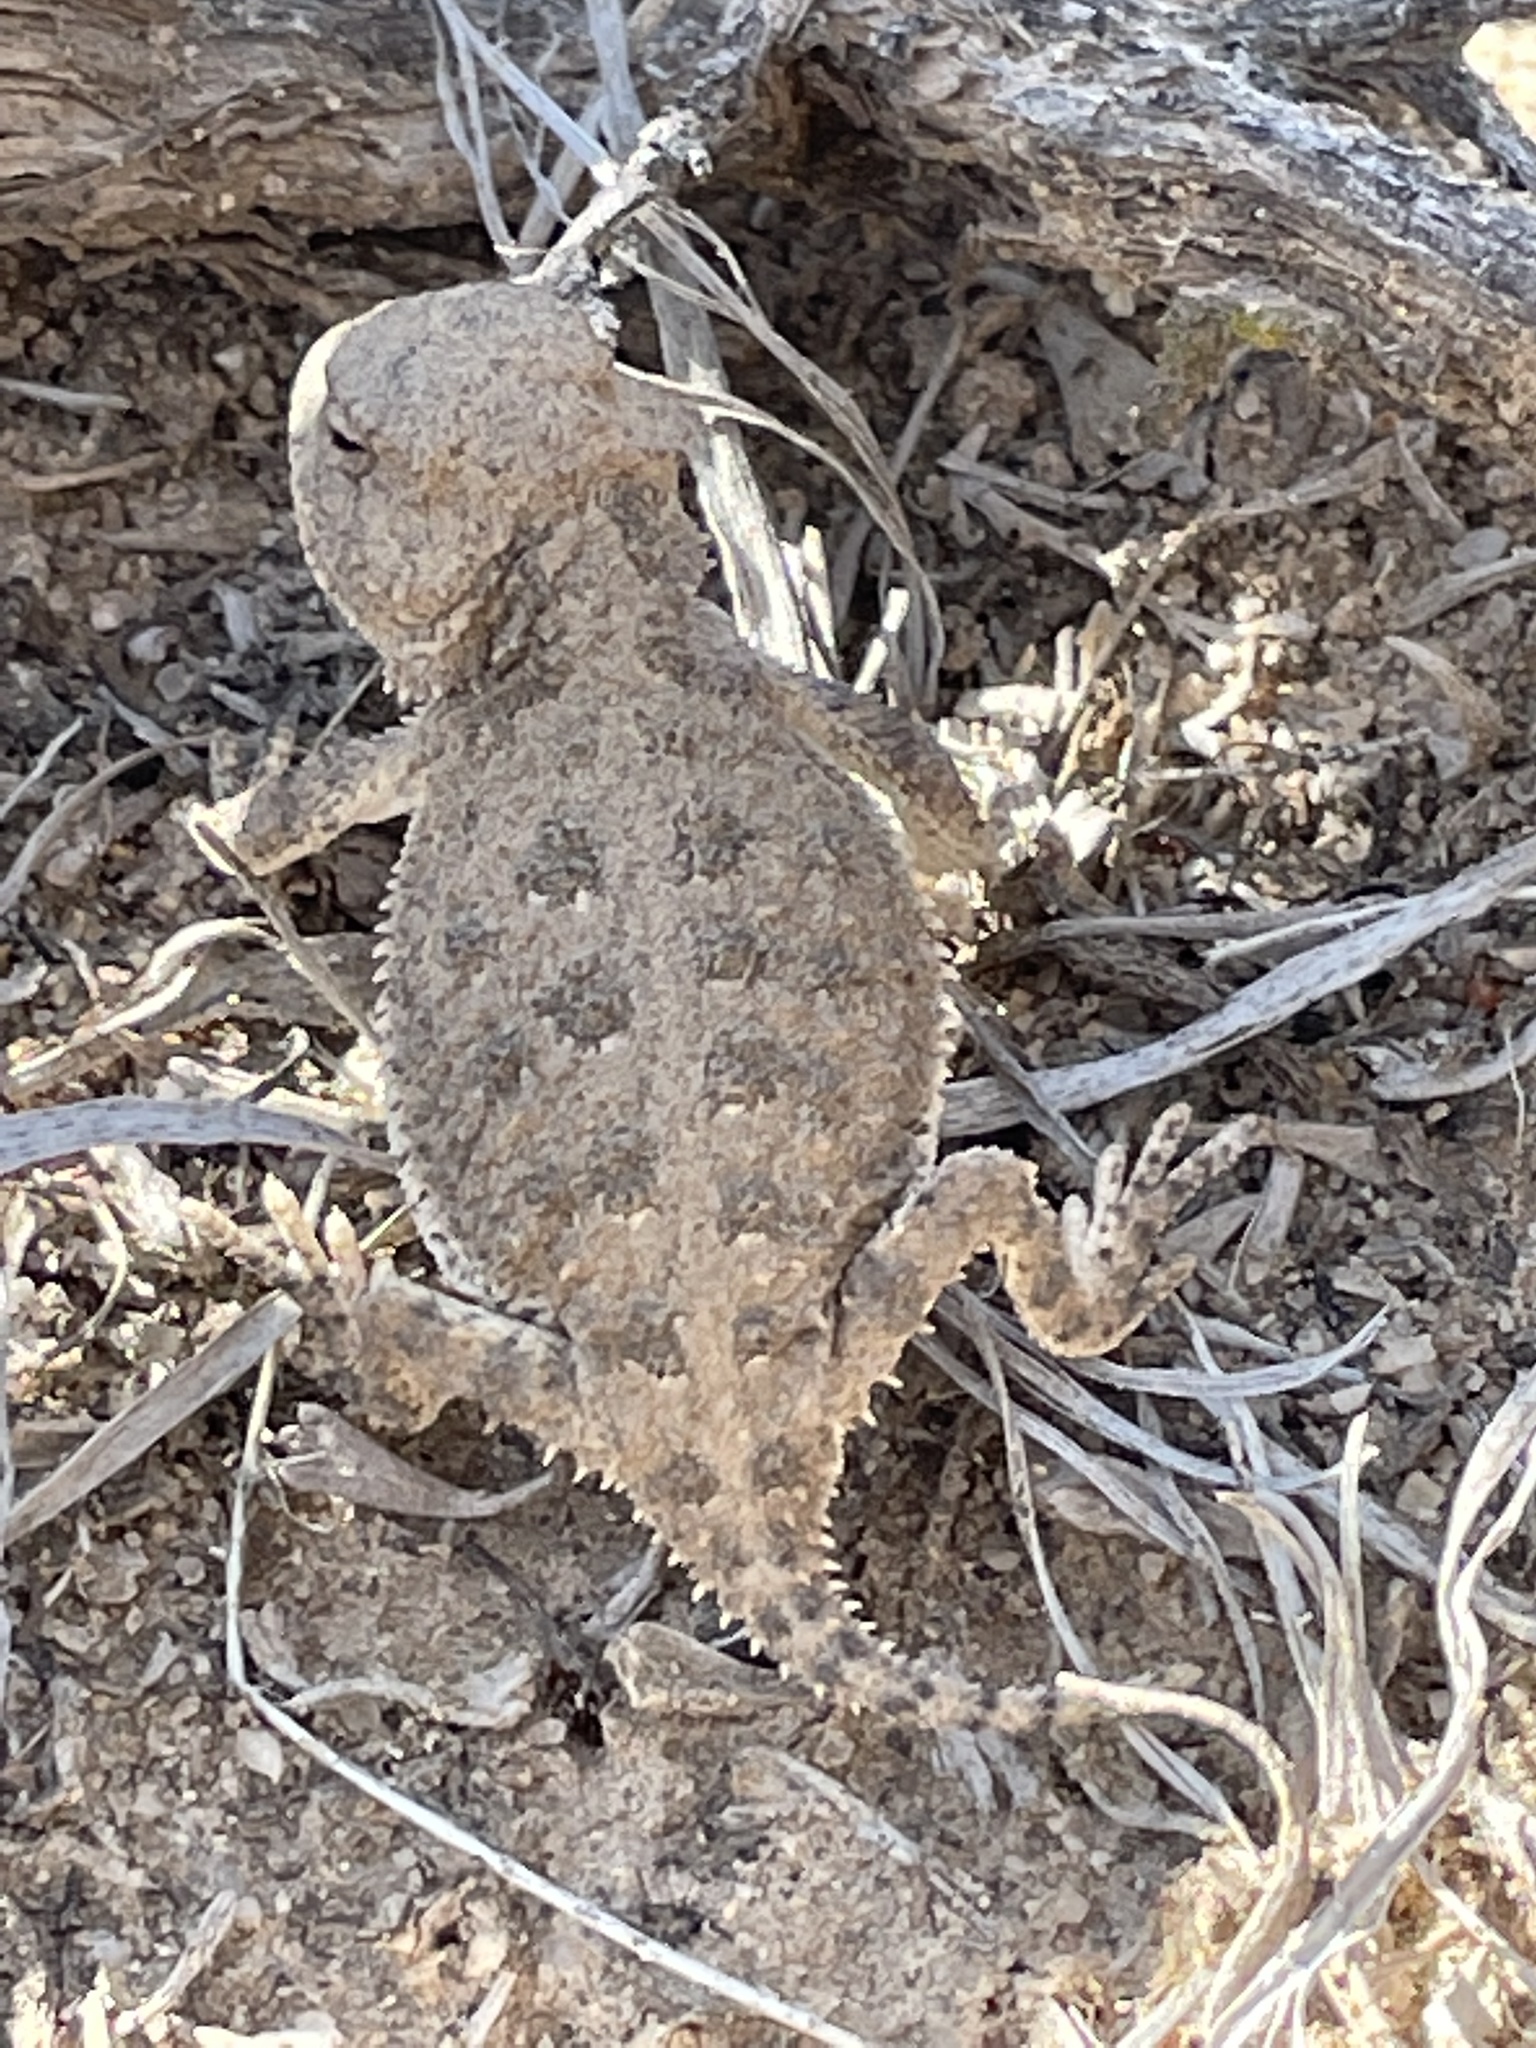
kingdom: Animalia
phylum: Chordata
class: Squamata
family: Phrynosomatidae
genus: Phrynosoma
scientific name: Phrynosoma hernandesi
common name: Greater short-horned lizard
